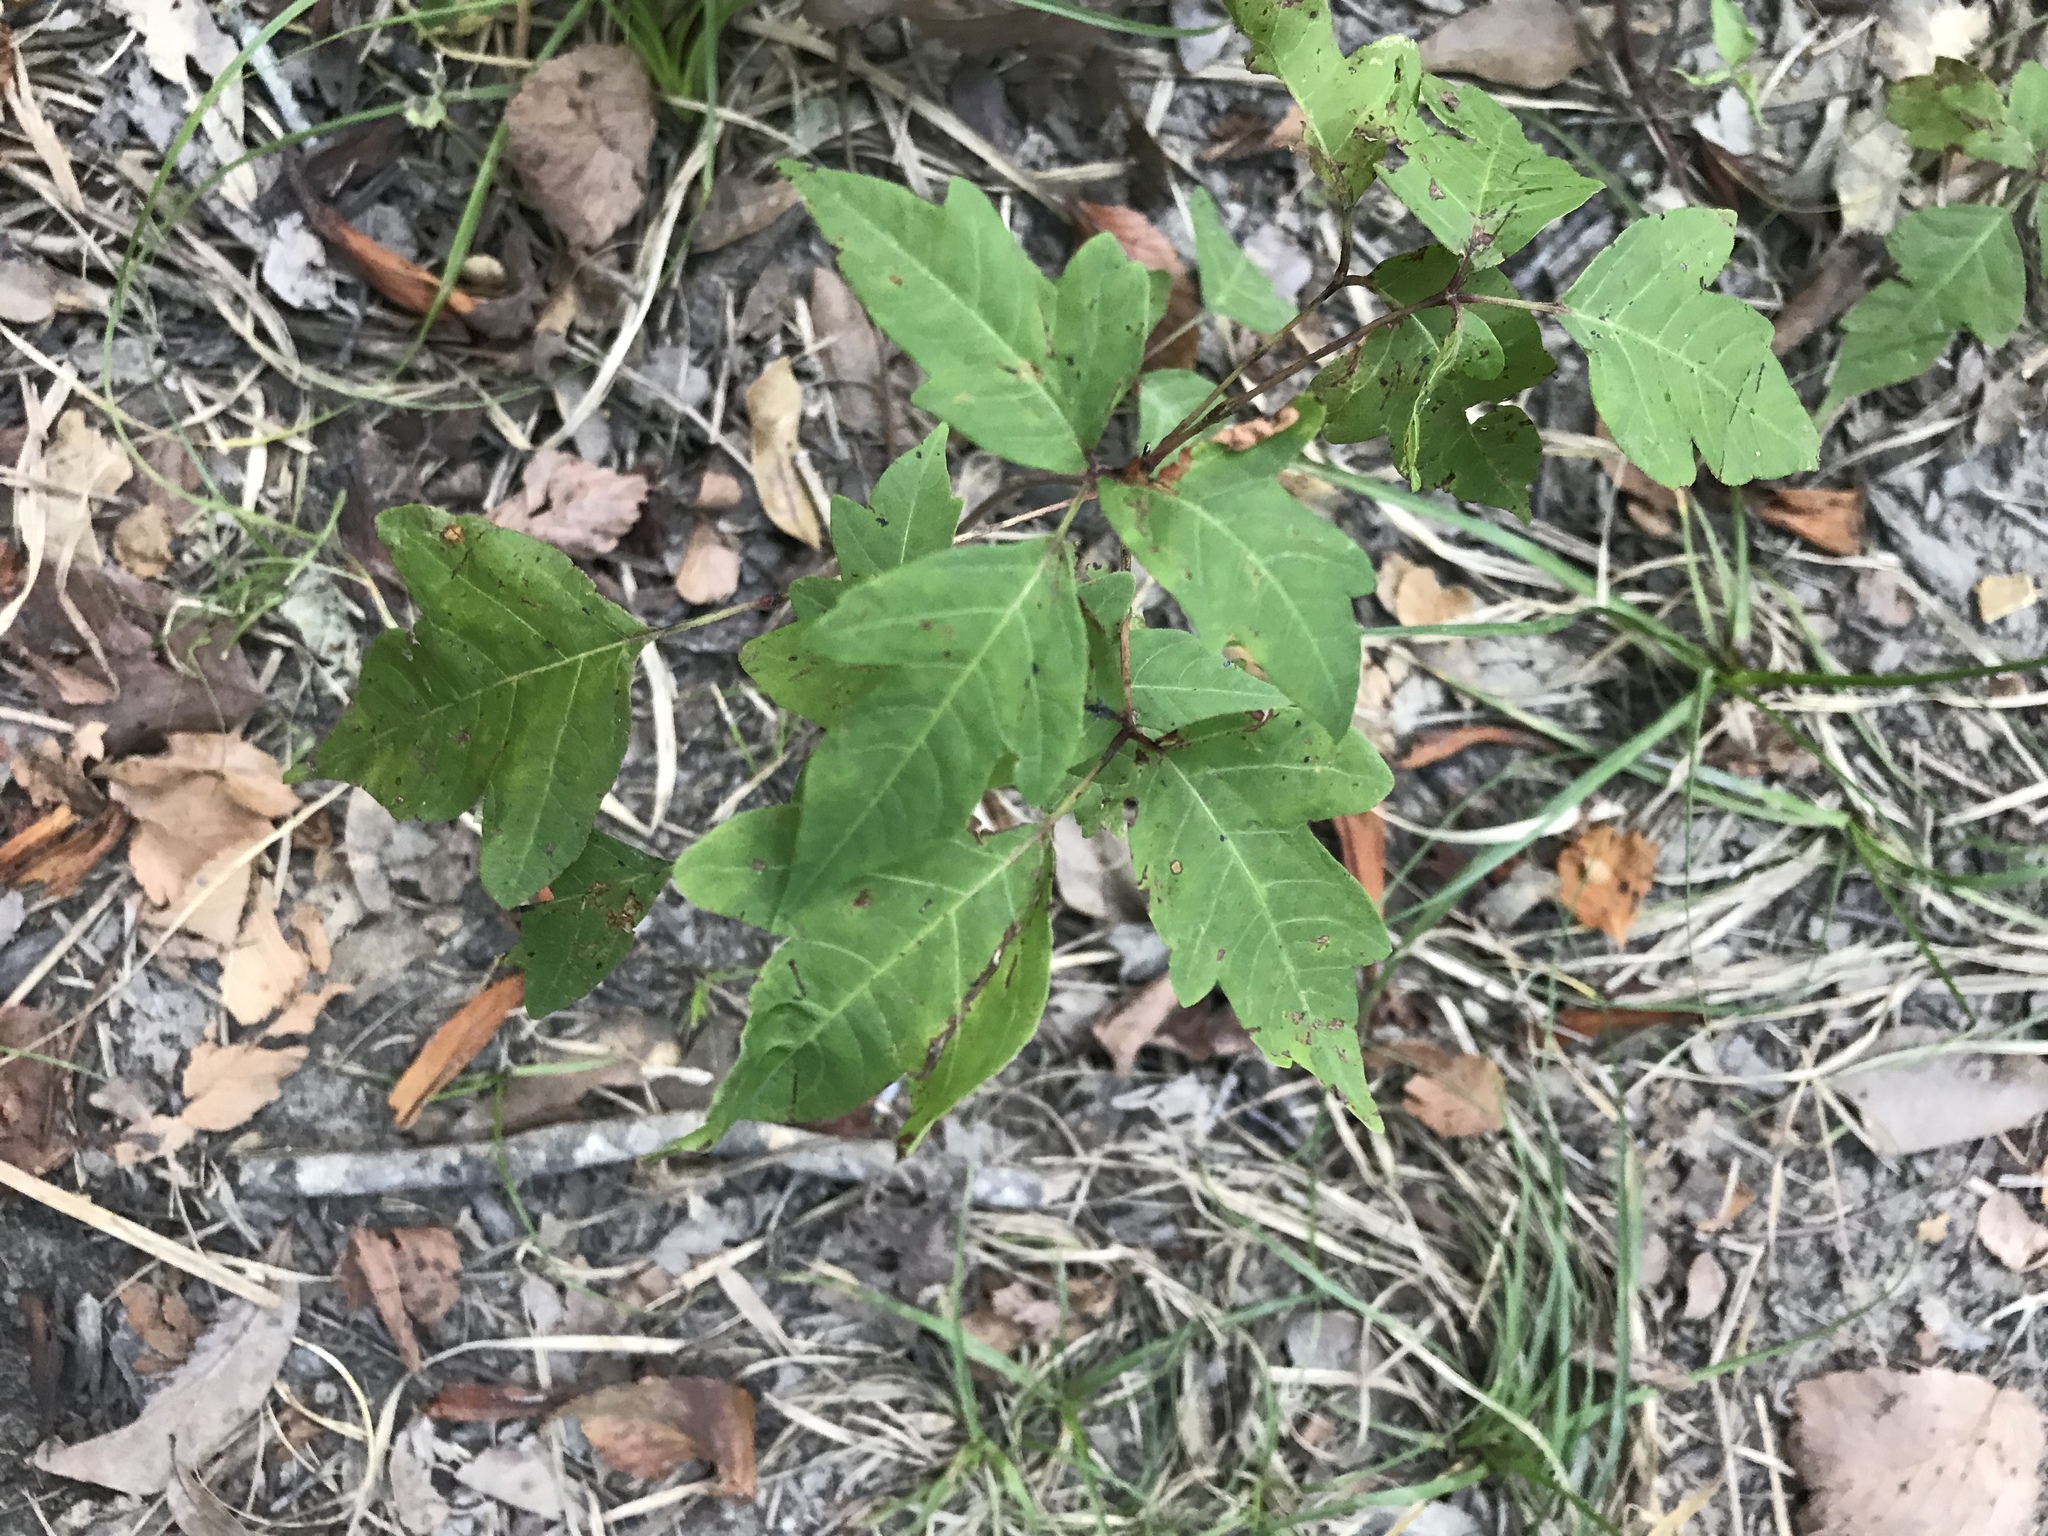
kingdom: Plantae
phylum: Tracheophyta
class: Magnoliopsida
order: Sapindales
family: Anacardiaceae
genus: Toxicodendron
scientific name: Toxicodendron radicans
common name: Poison ivy
